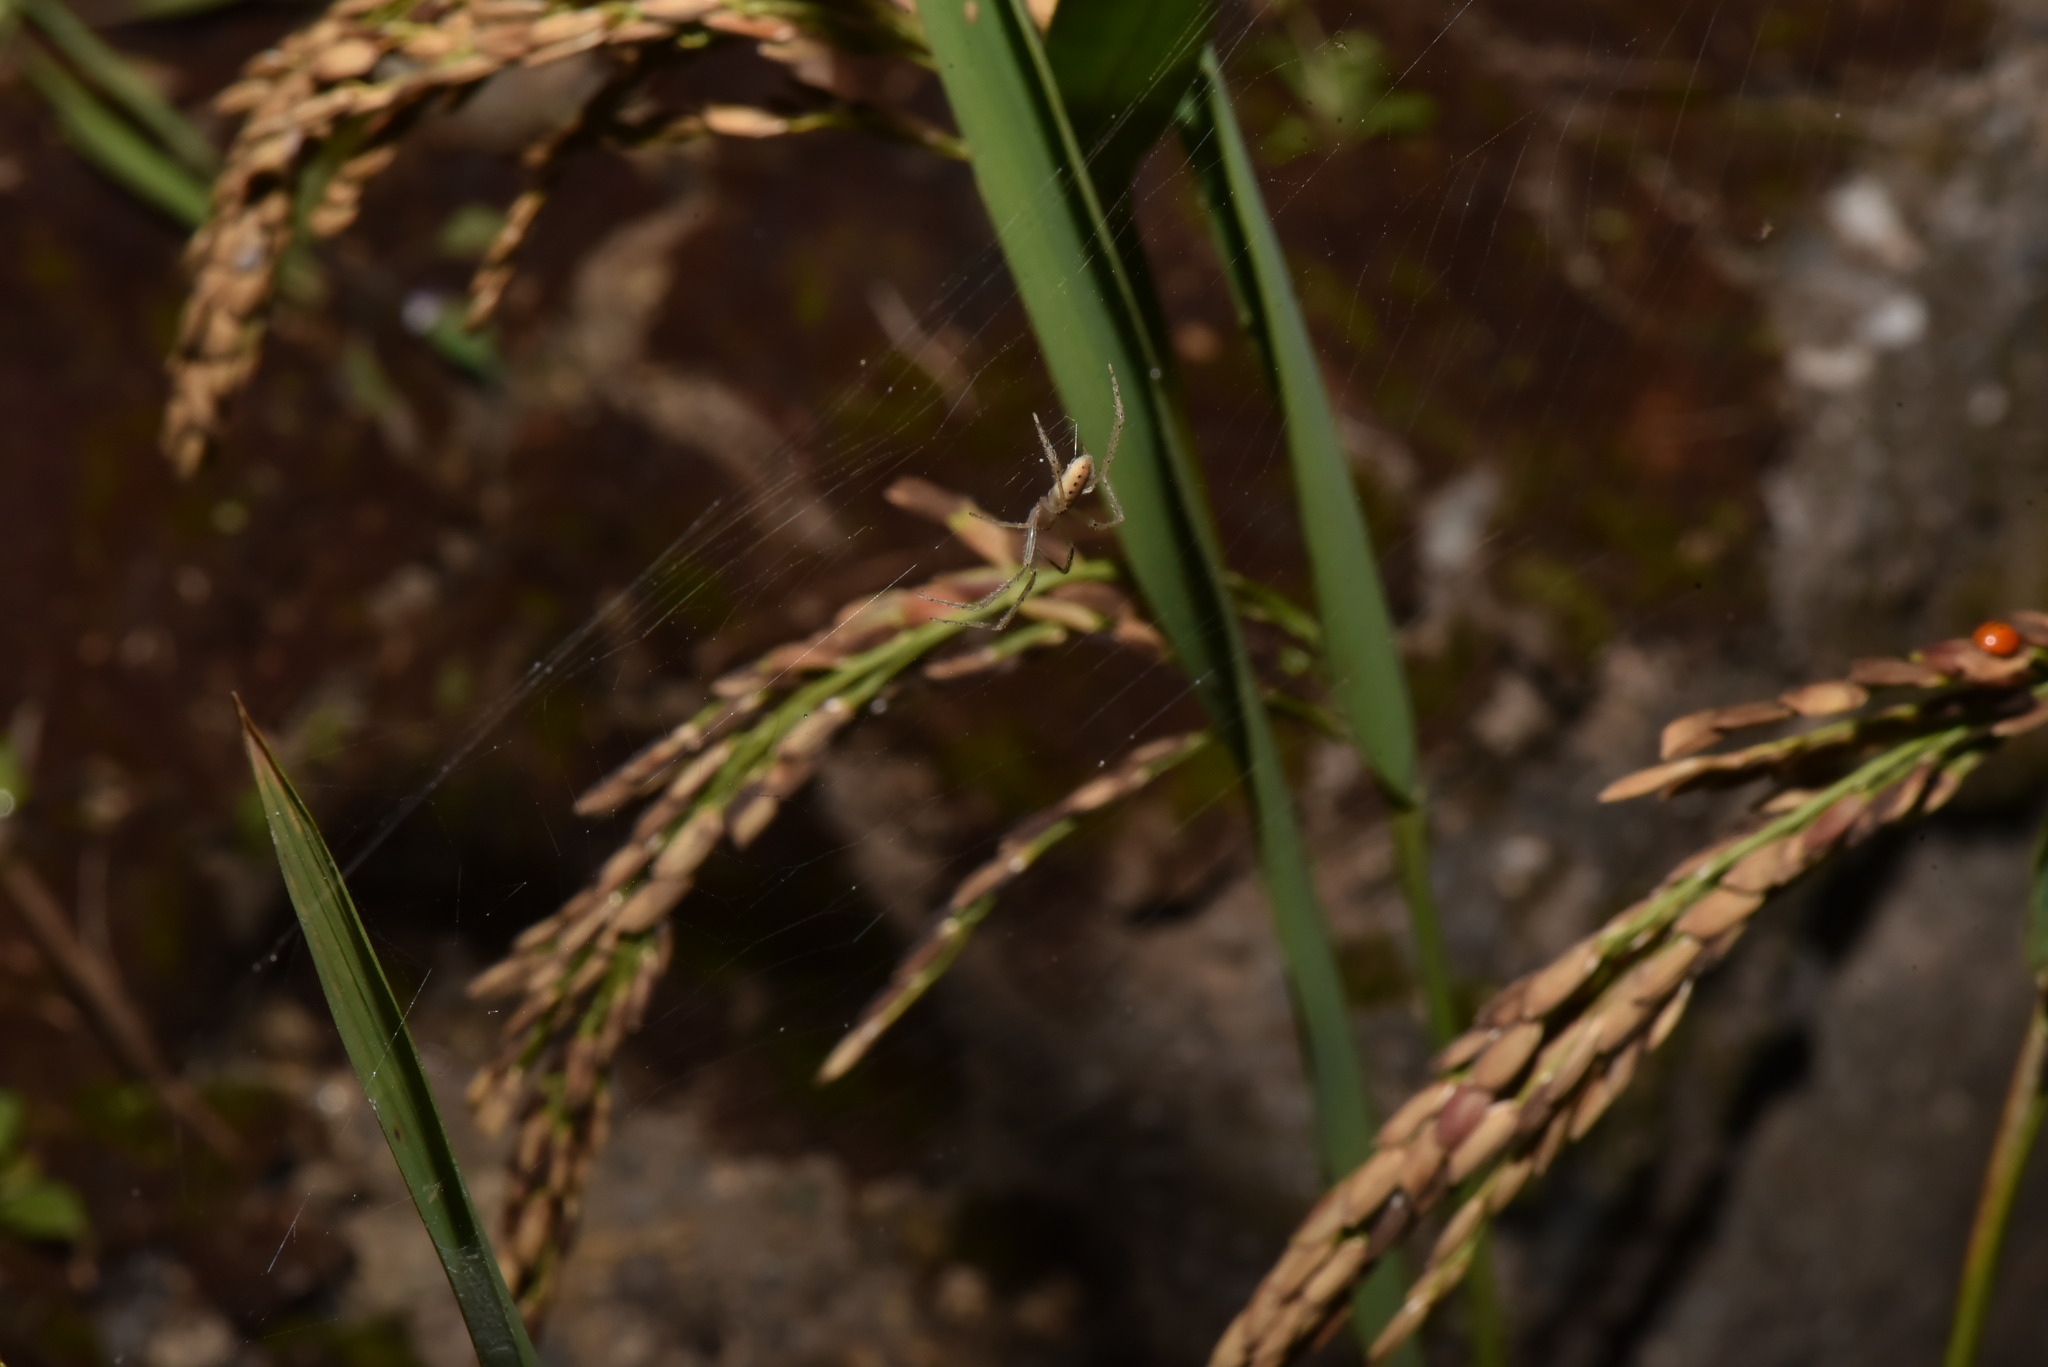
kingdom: Animalia
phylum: Arthropoda
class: Arachnida
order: Araneae
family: Araneidae
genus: Lariniaria
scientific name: Lariniaria argiopiformis
